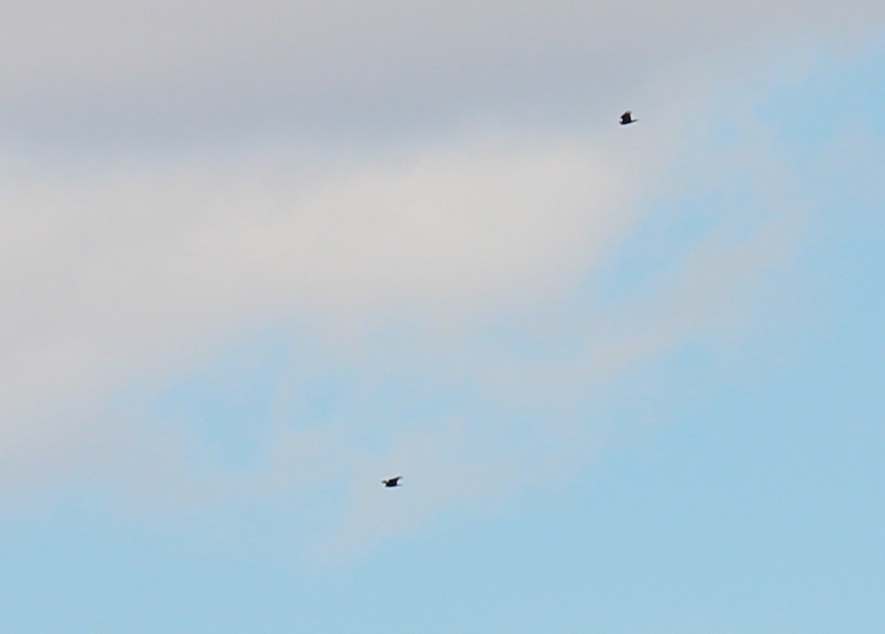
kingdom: Animalia
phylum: Chordata
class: Aves
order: Accipitriformes
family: Cathartidae
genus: Cathartes
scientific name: Cathartes aura
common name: Turkey vulture
